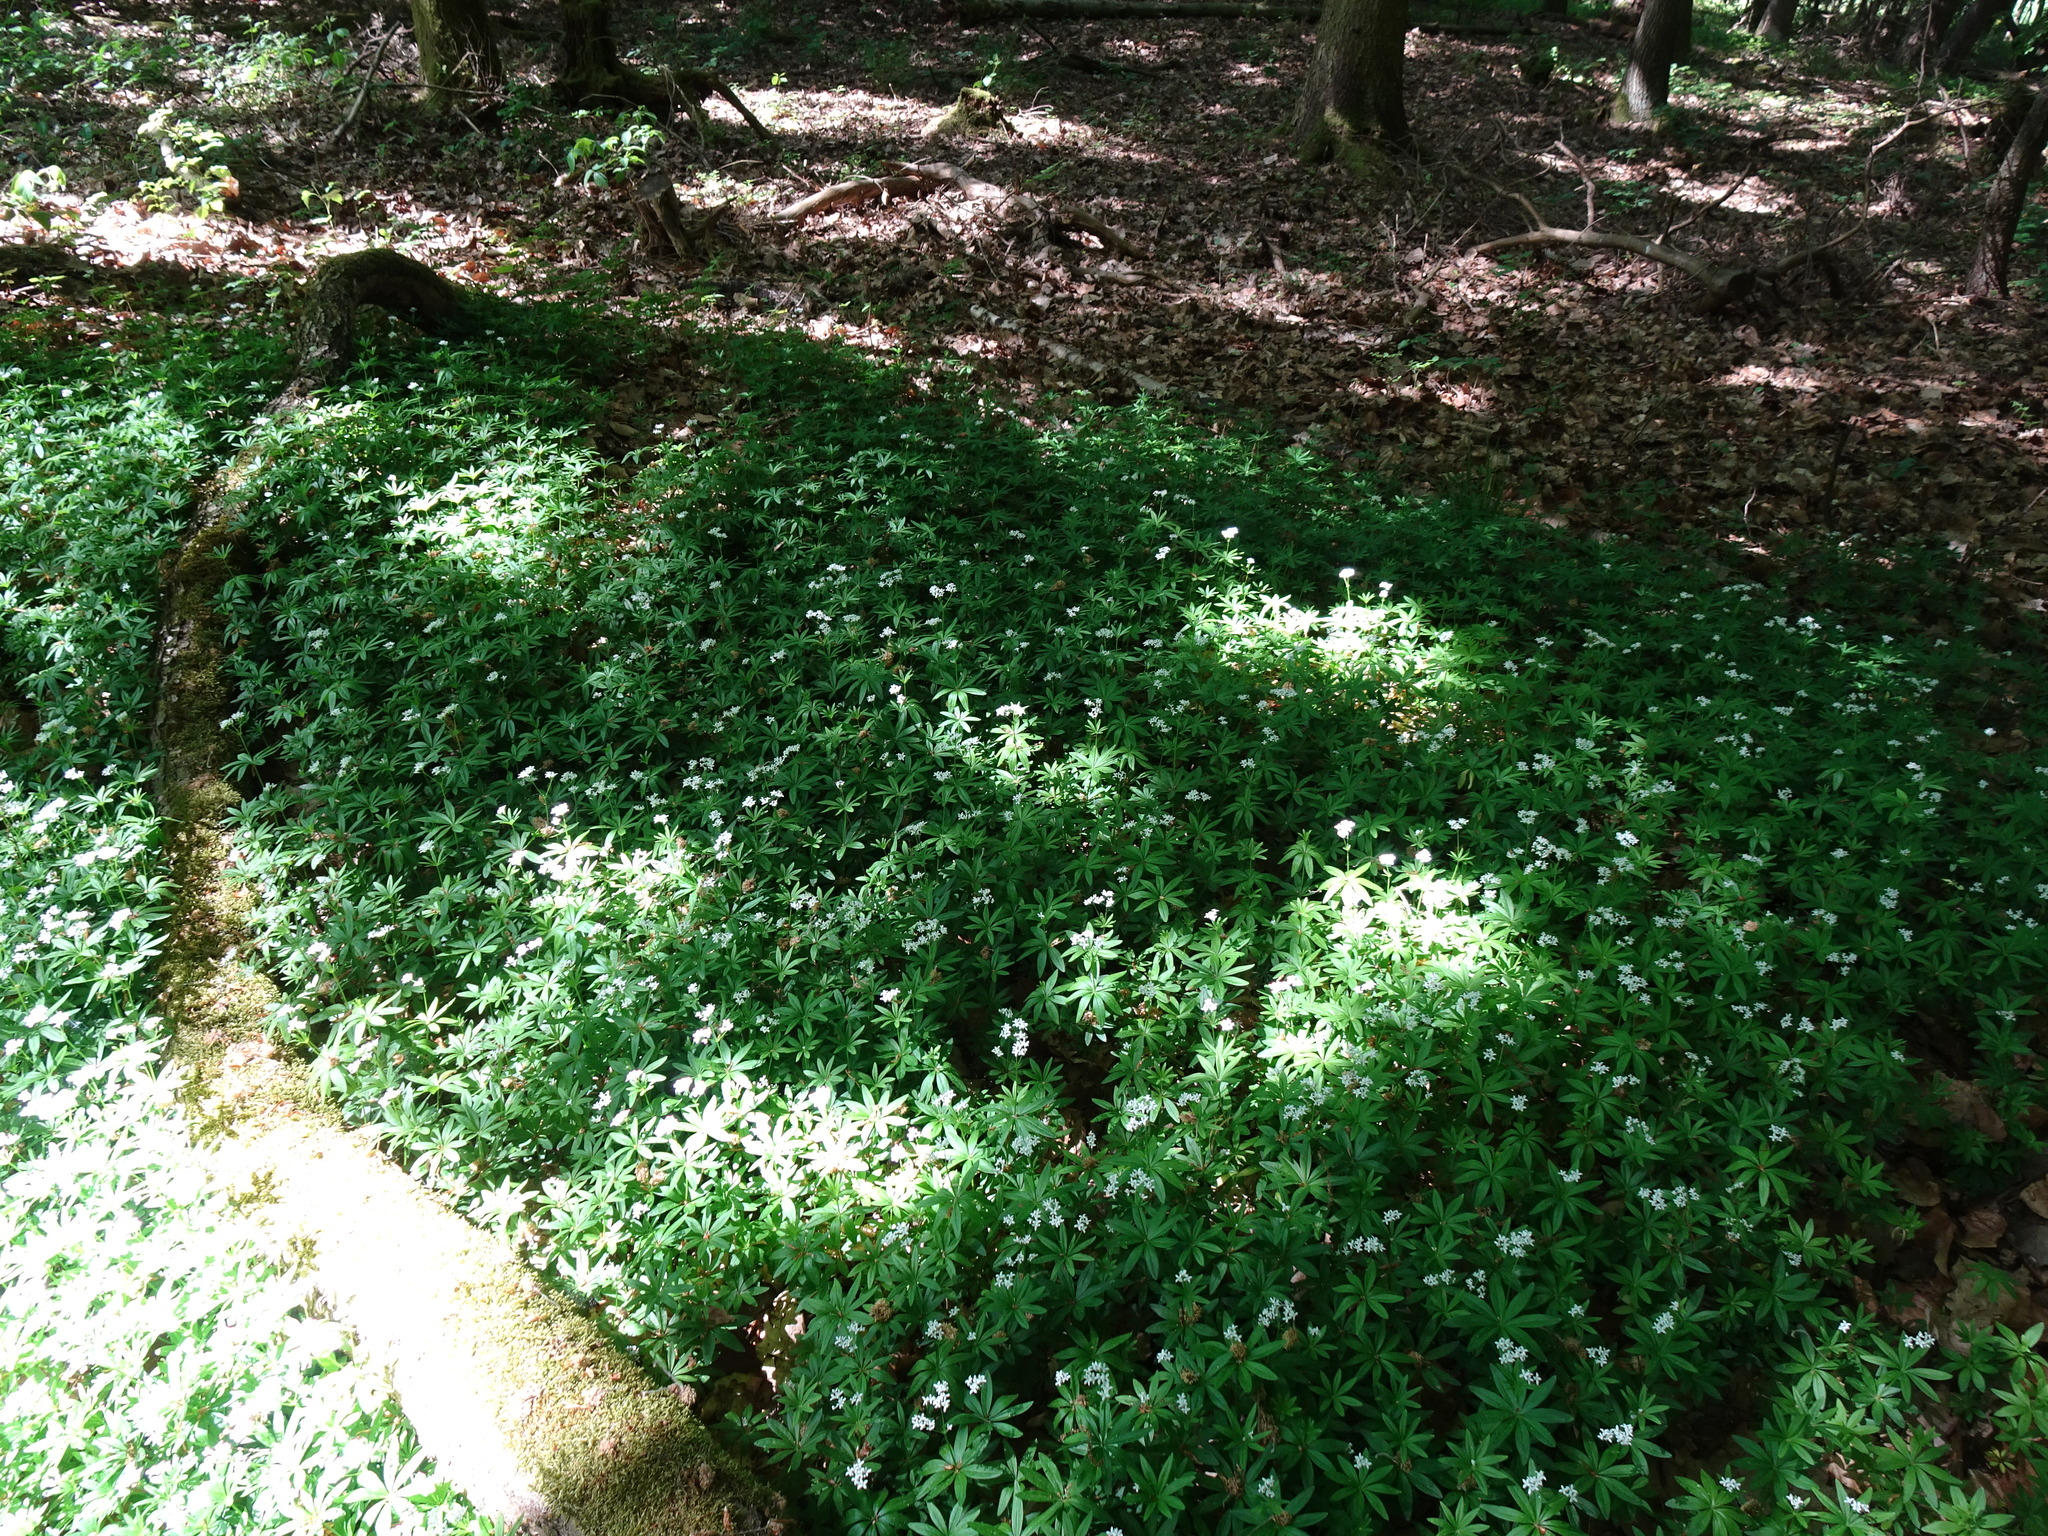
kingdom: Plantae
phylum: Tracheophyta
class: Magnoliopsida
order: Gentianales
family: Rubiaceae
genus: Galium
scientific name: Galium odoratum
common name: Sweet woodruff
